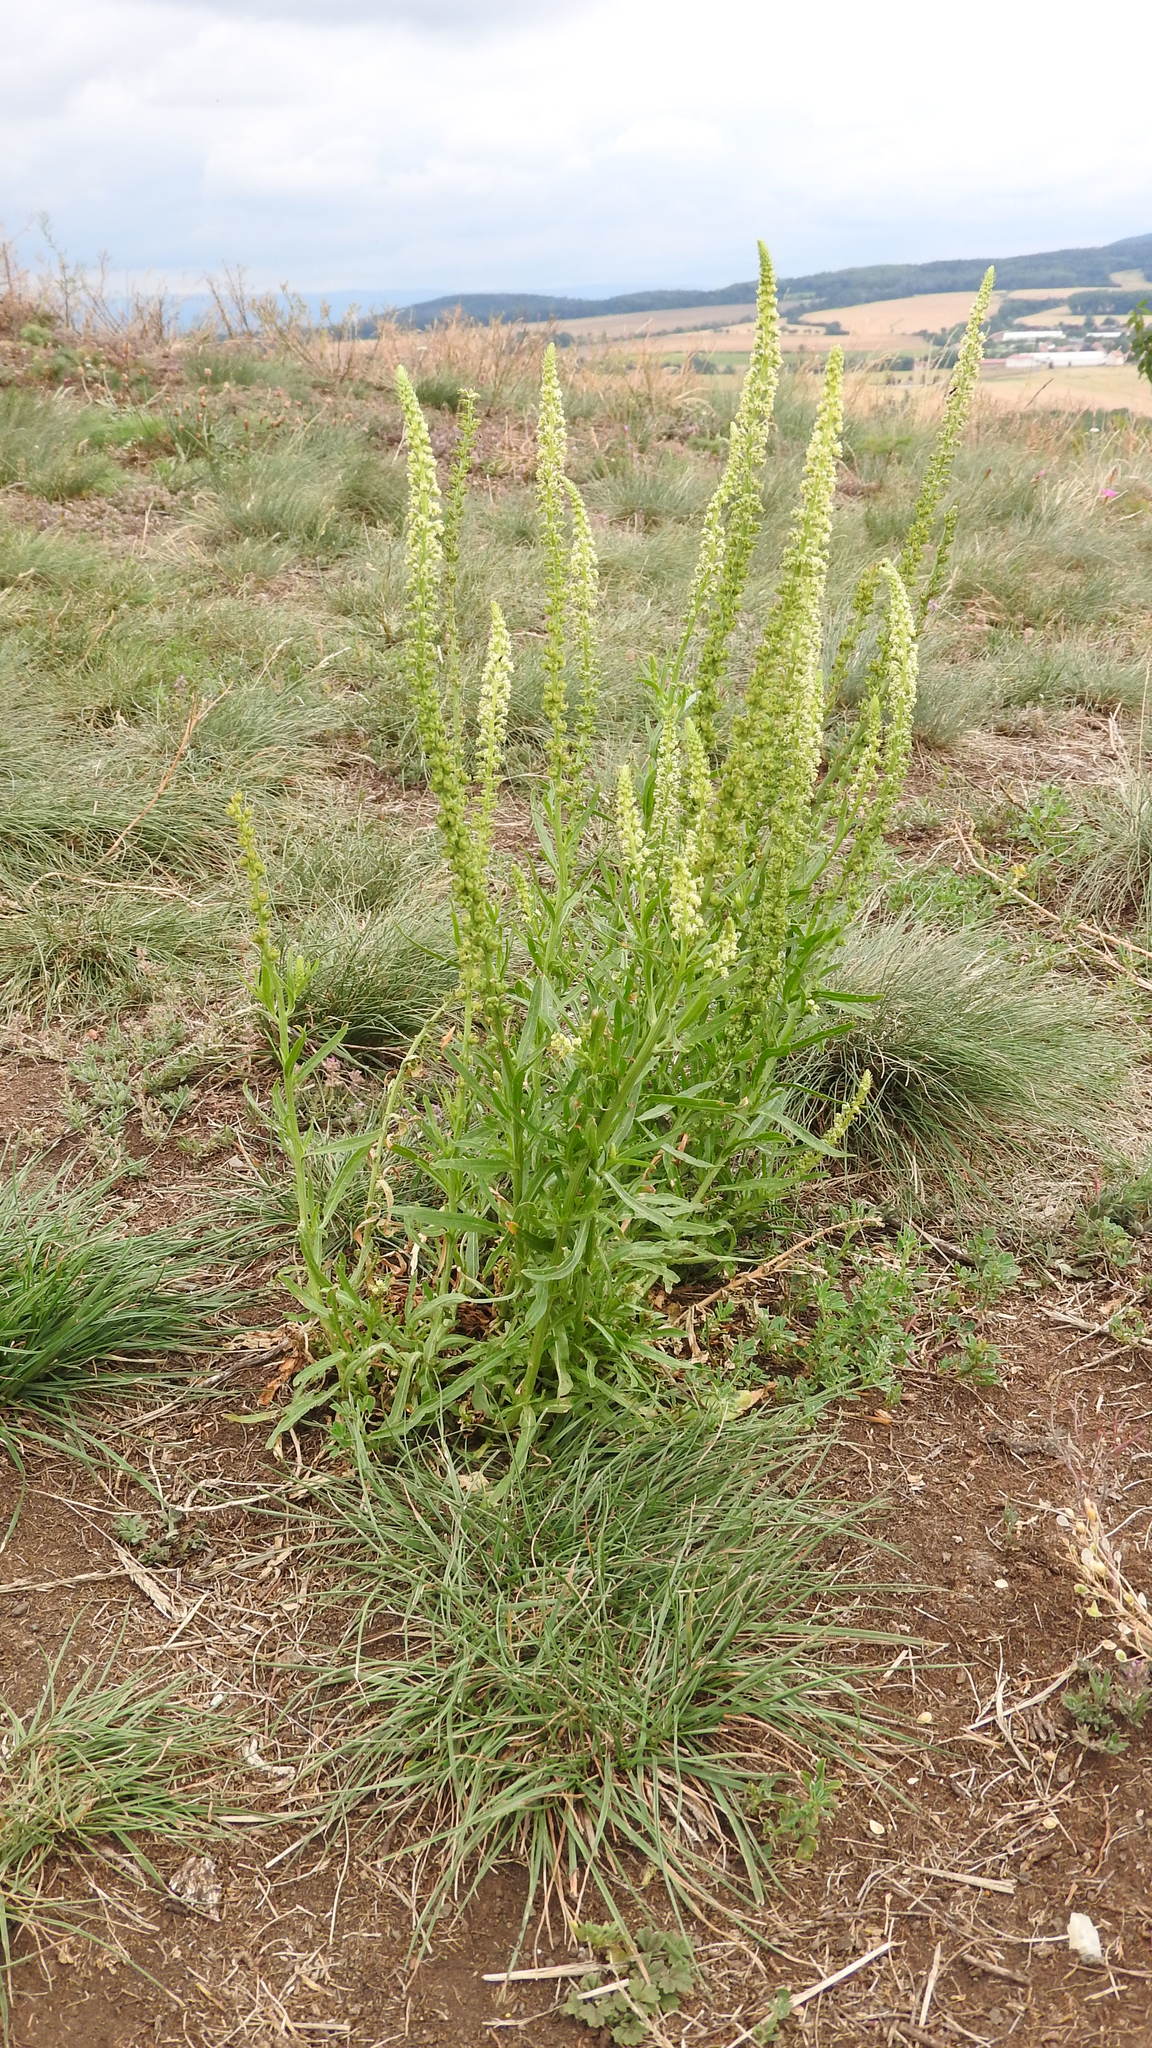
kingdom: Plantae
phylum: Tracheophyta
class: Magnoliopsida
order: Brassicales
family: Resedaceae
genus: Reseda
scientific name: Reseda luteola
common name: Weld
